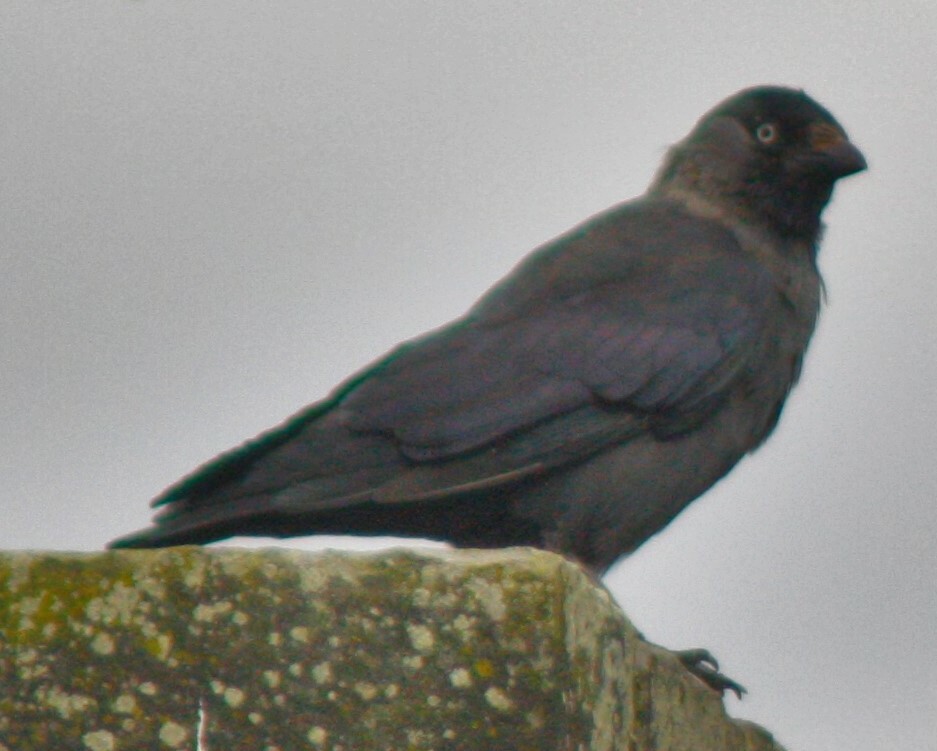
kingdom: Animalia
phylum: Chordata
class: Aves
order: Passeriformes
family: Corvidae
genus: Coloeus
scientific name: Coloeus monedula
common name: Western jackdaw
